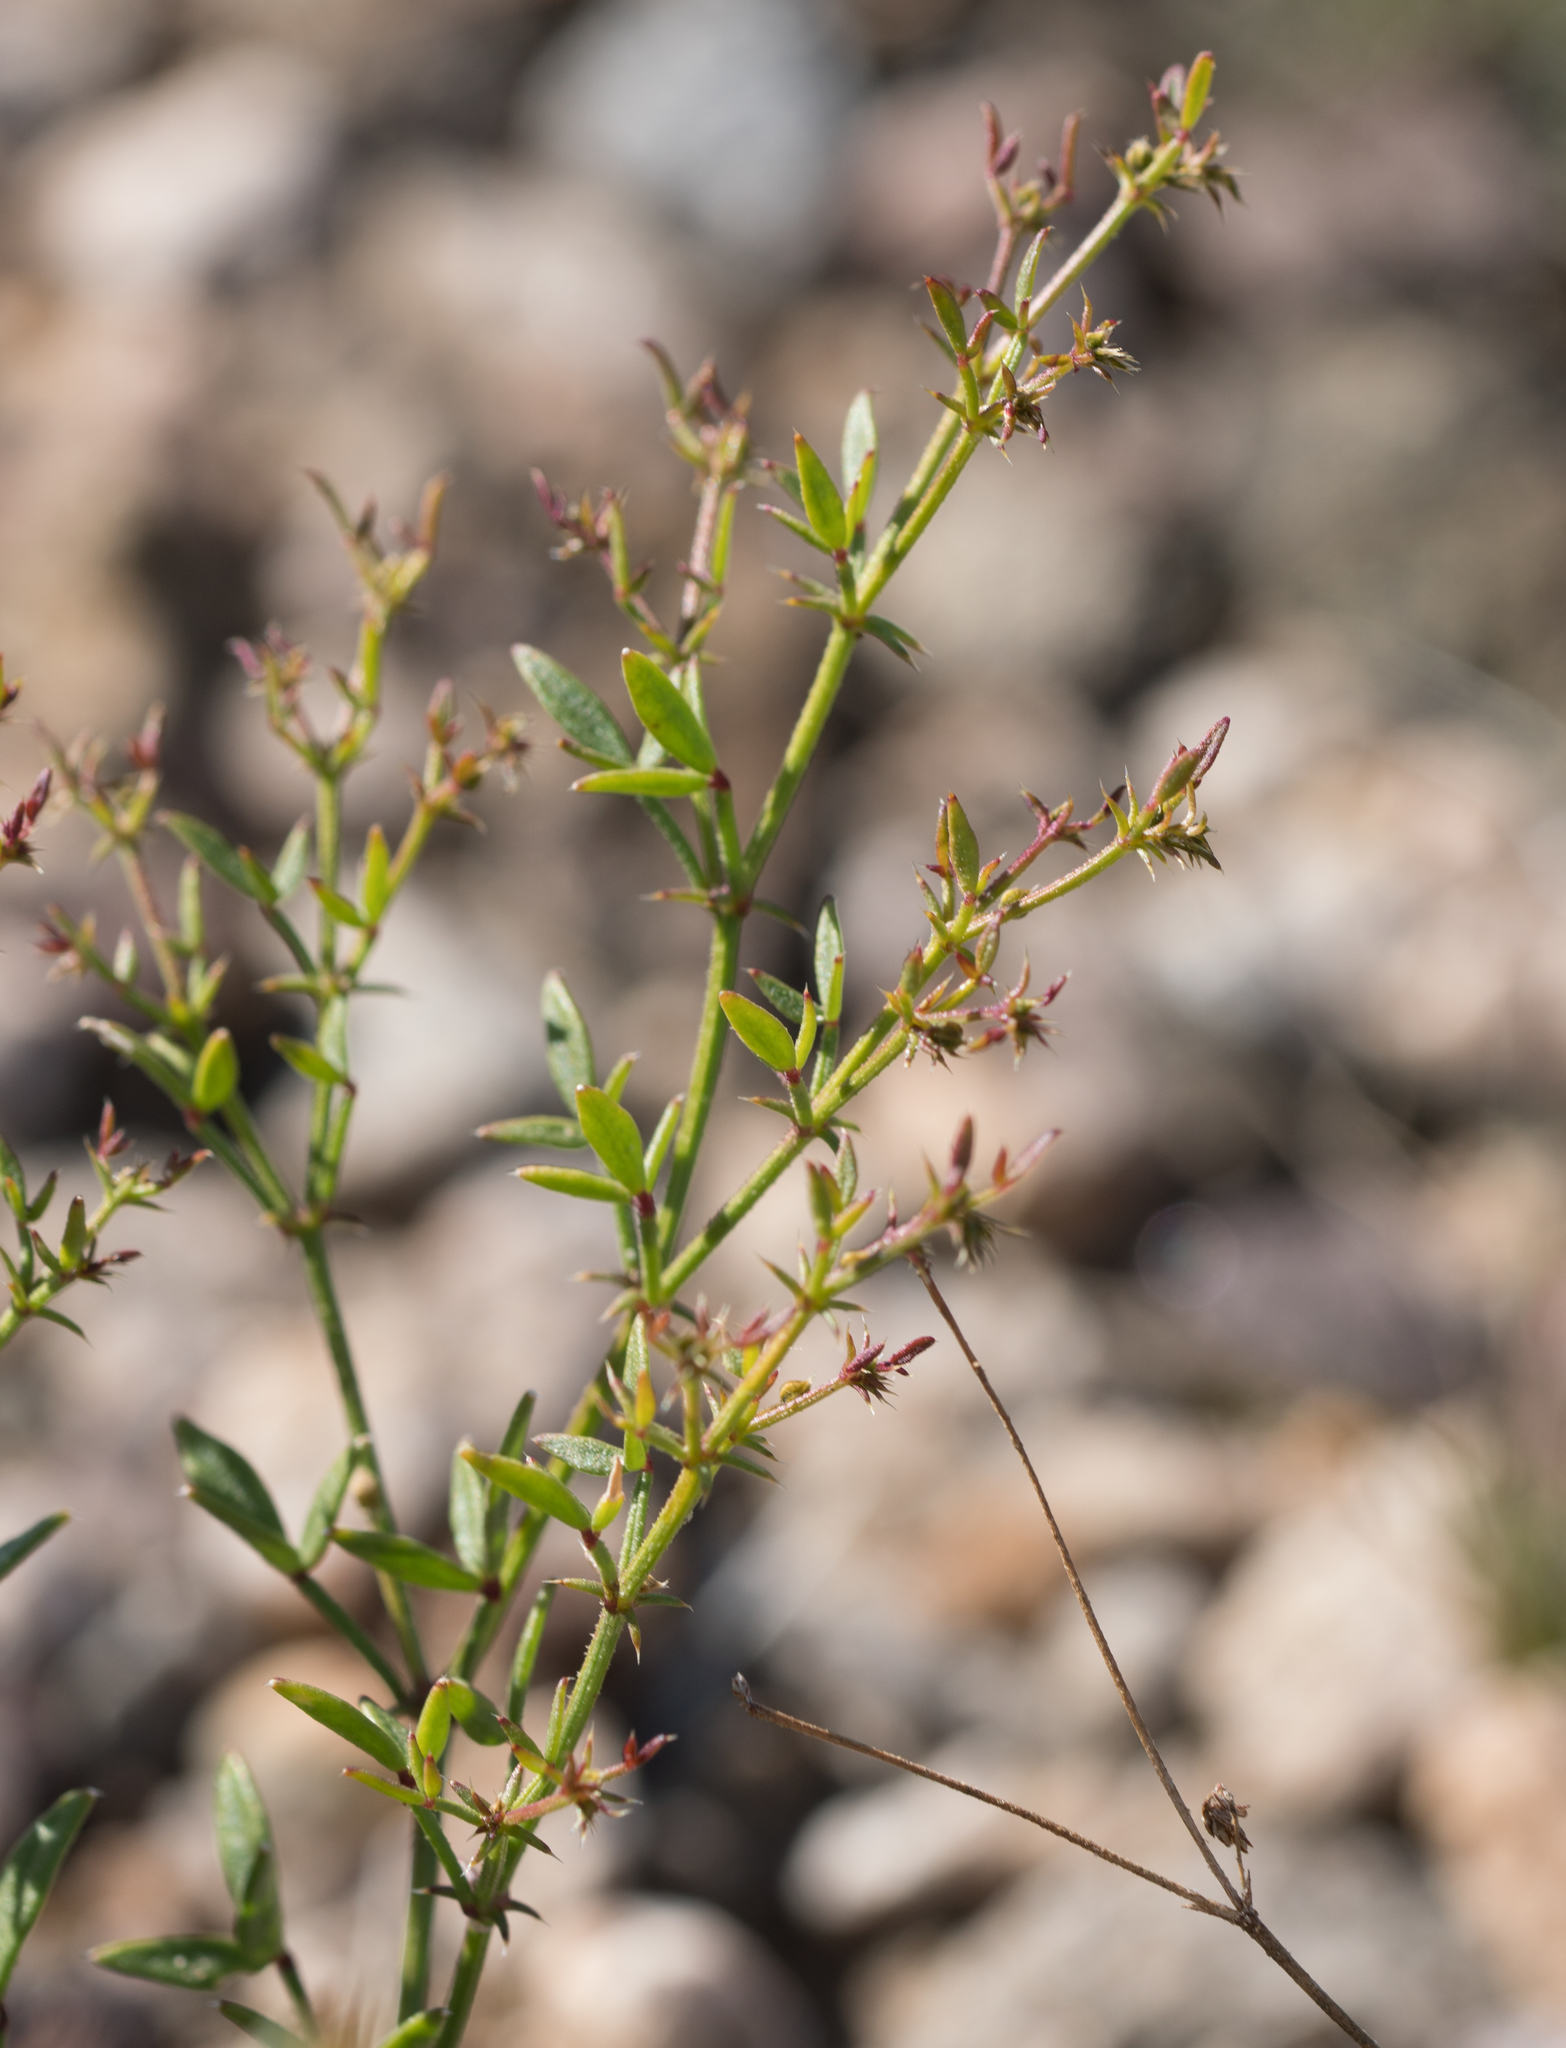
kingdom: Plantae
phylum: Tracheophyta
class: Magnoliopsida
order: Zygophyllales
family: Zygophyllaceae
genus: Fagonia
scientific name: Fagonia laevis
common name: California fagonbush
